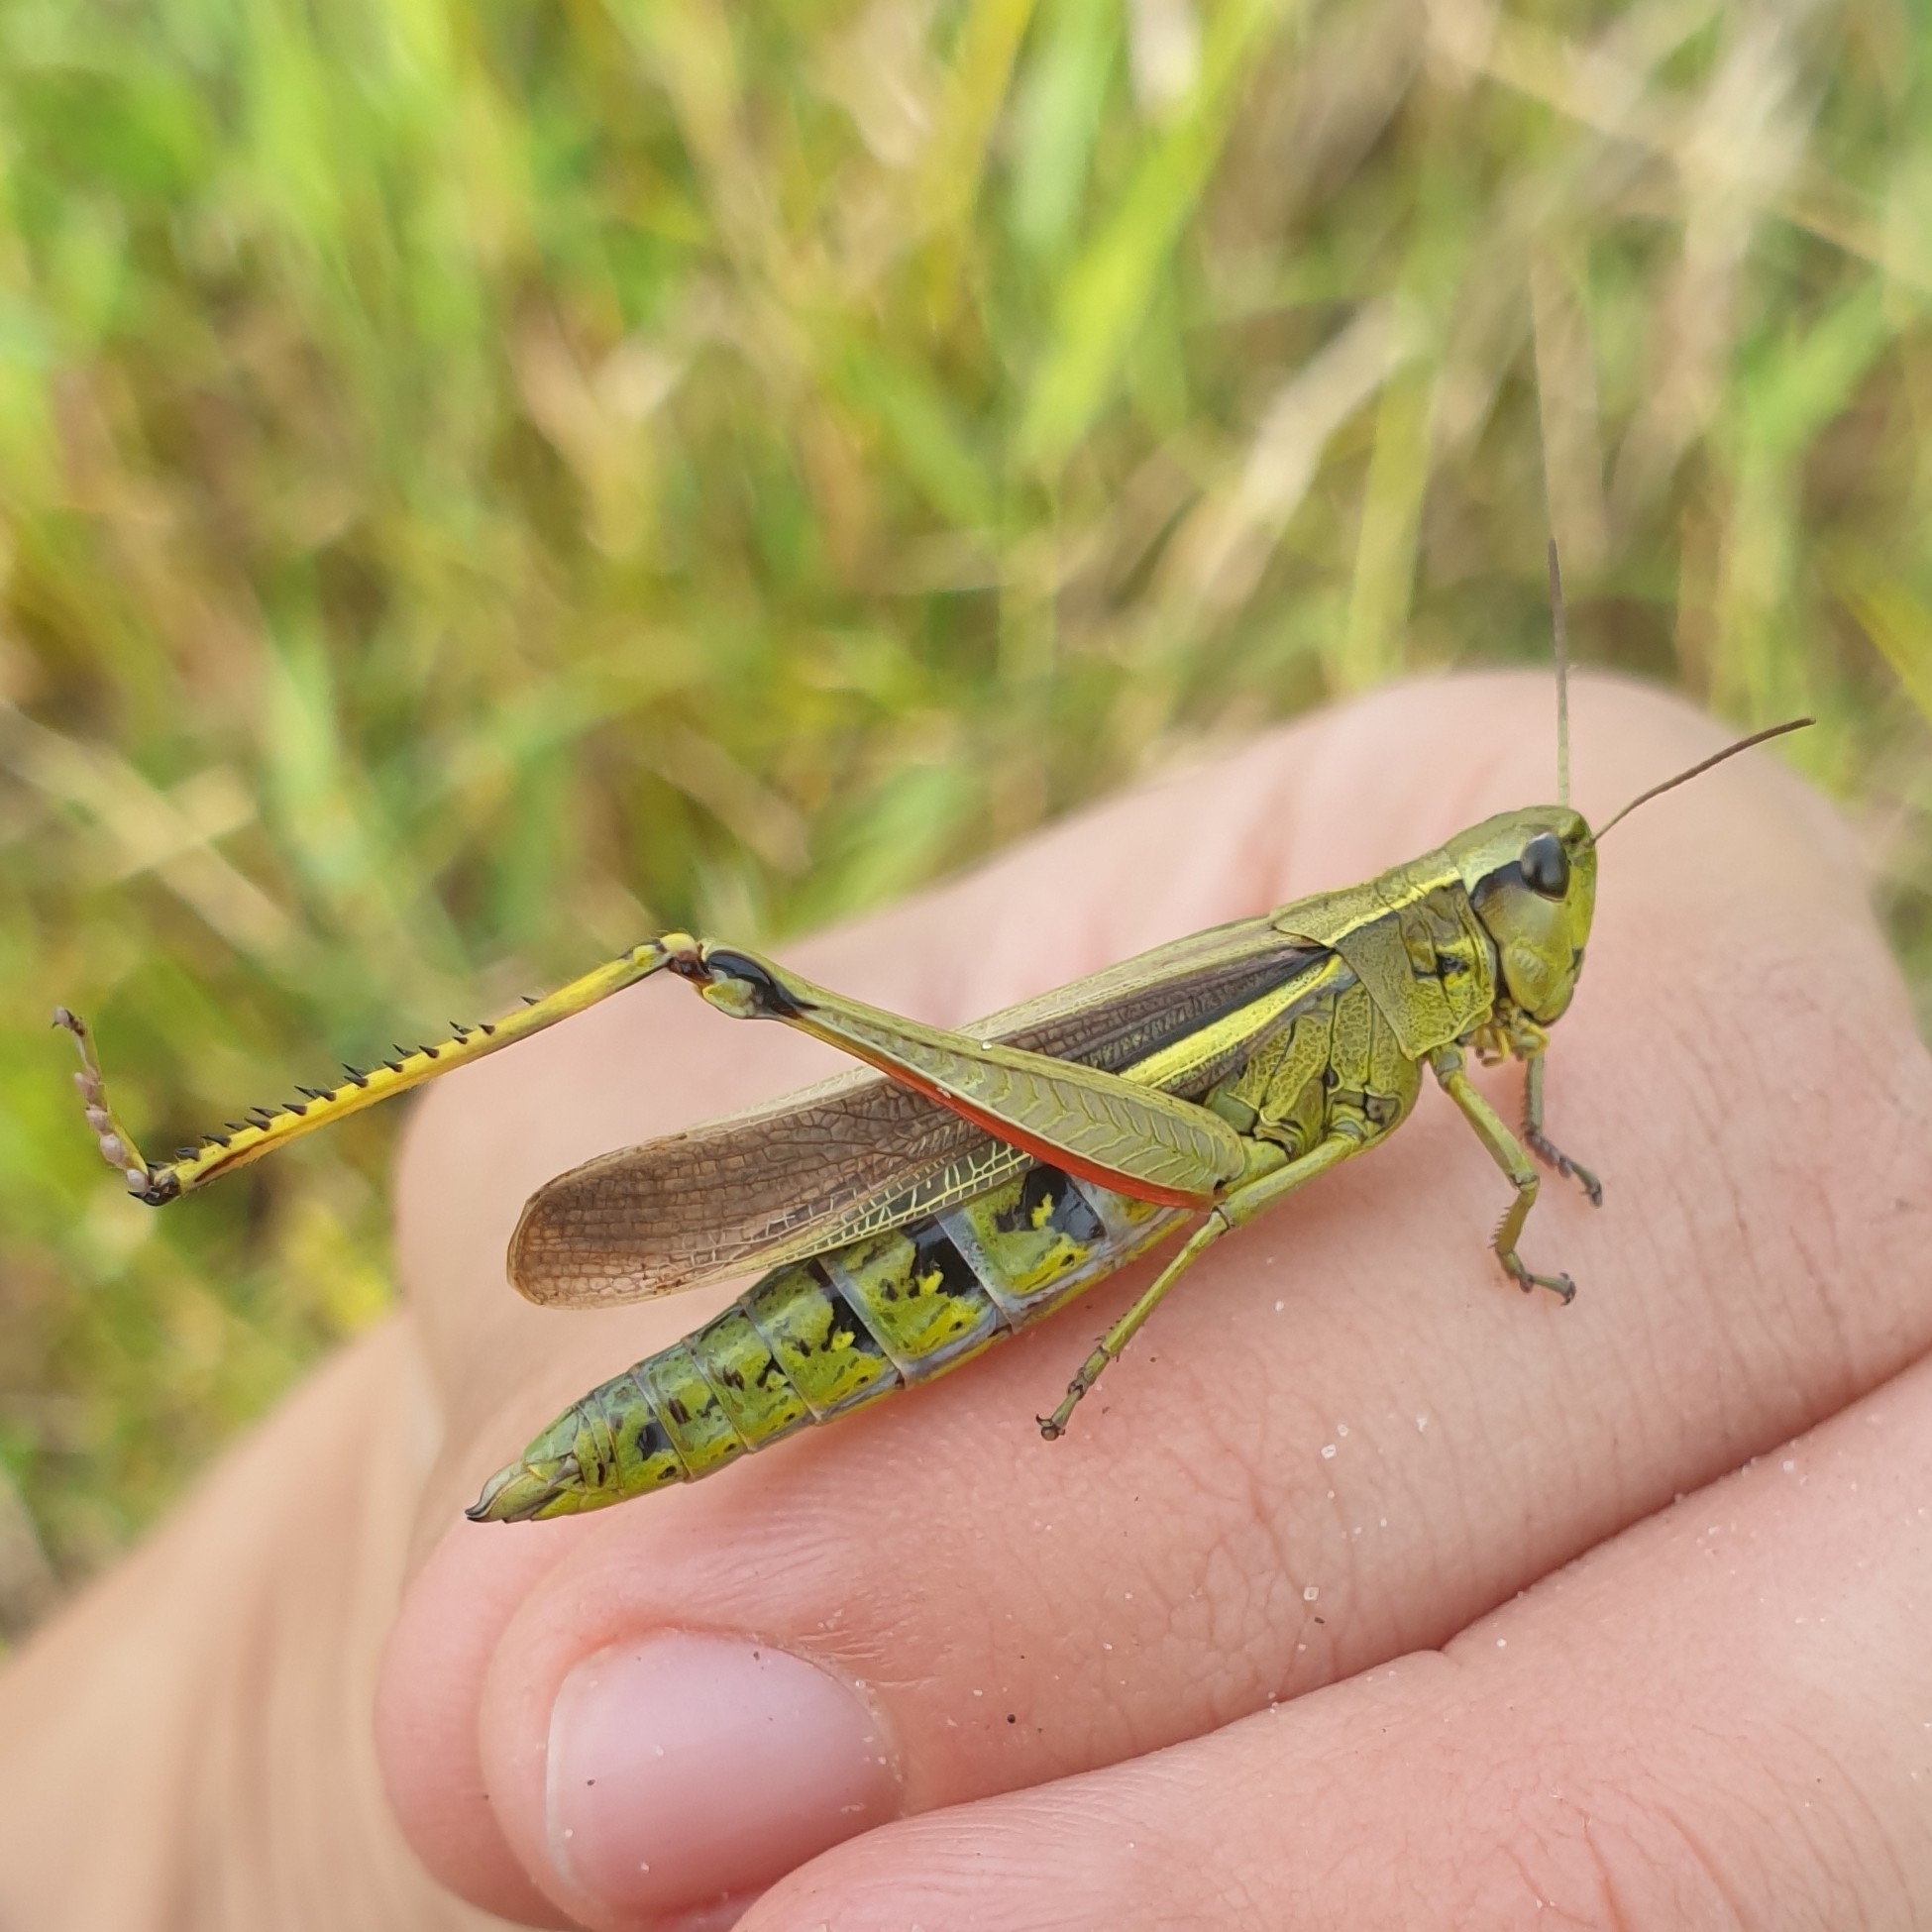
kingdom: Animalia
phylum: Arthropoda
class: Insecta
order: Orthoptera
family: Acrididae
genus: Stethophyma
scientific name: Stethophyma grossum
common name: Large marsh grasshopper
